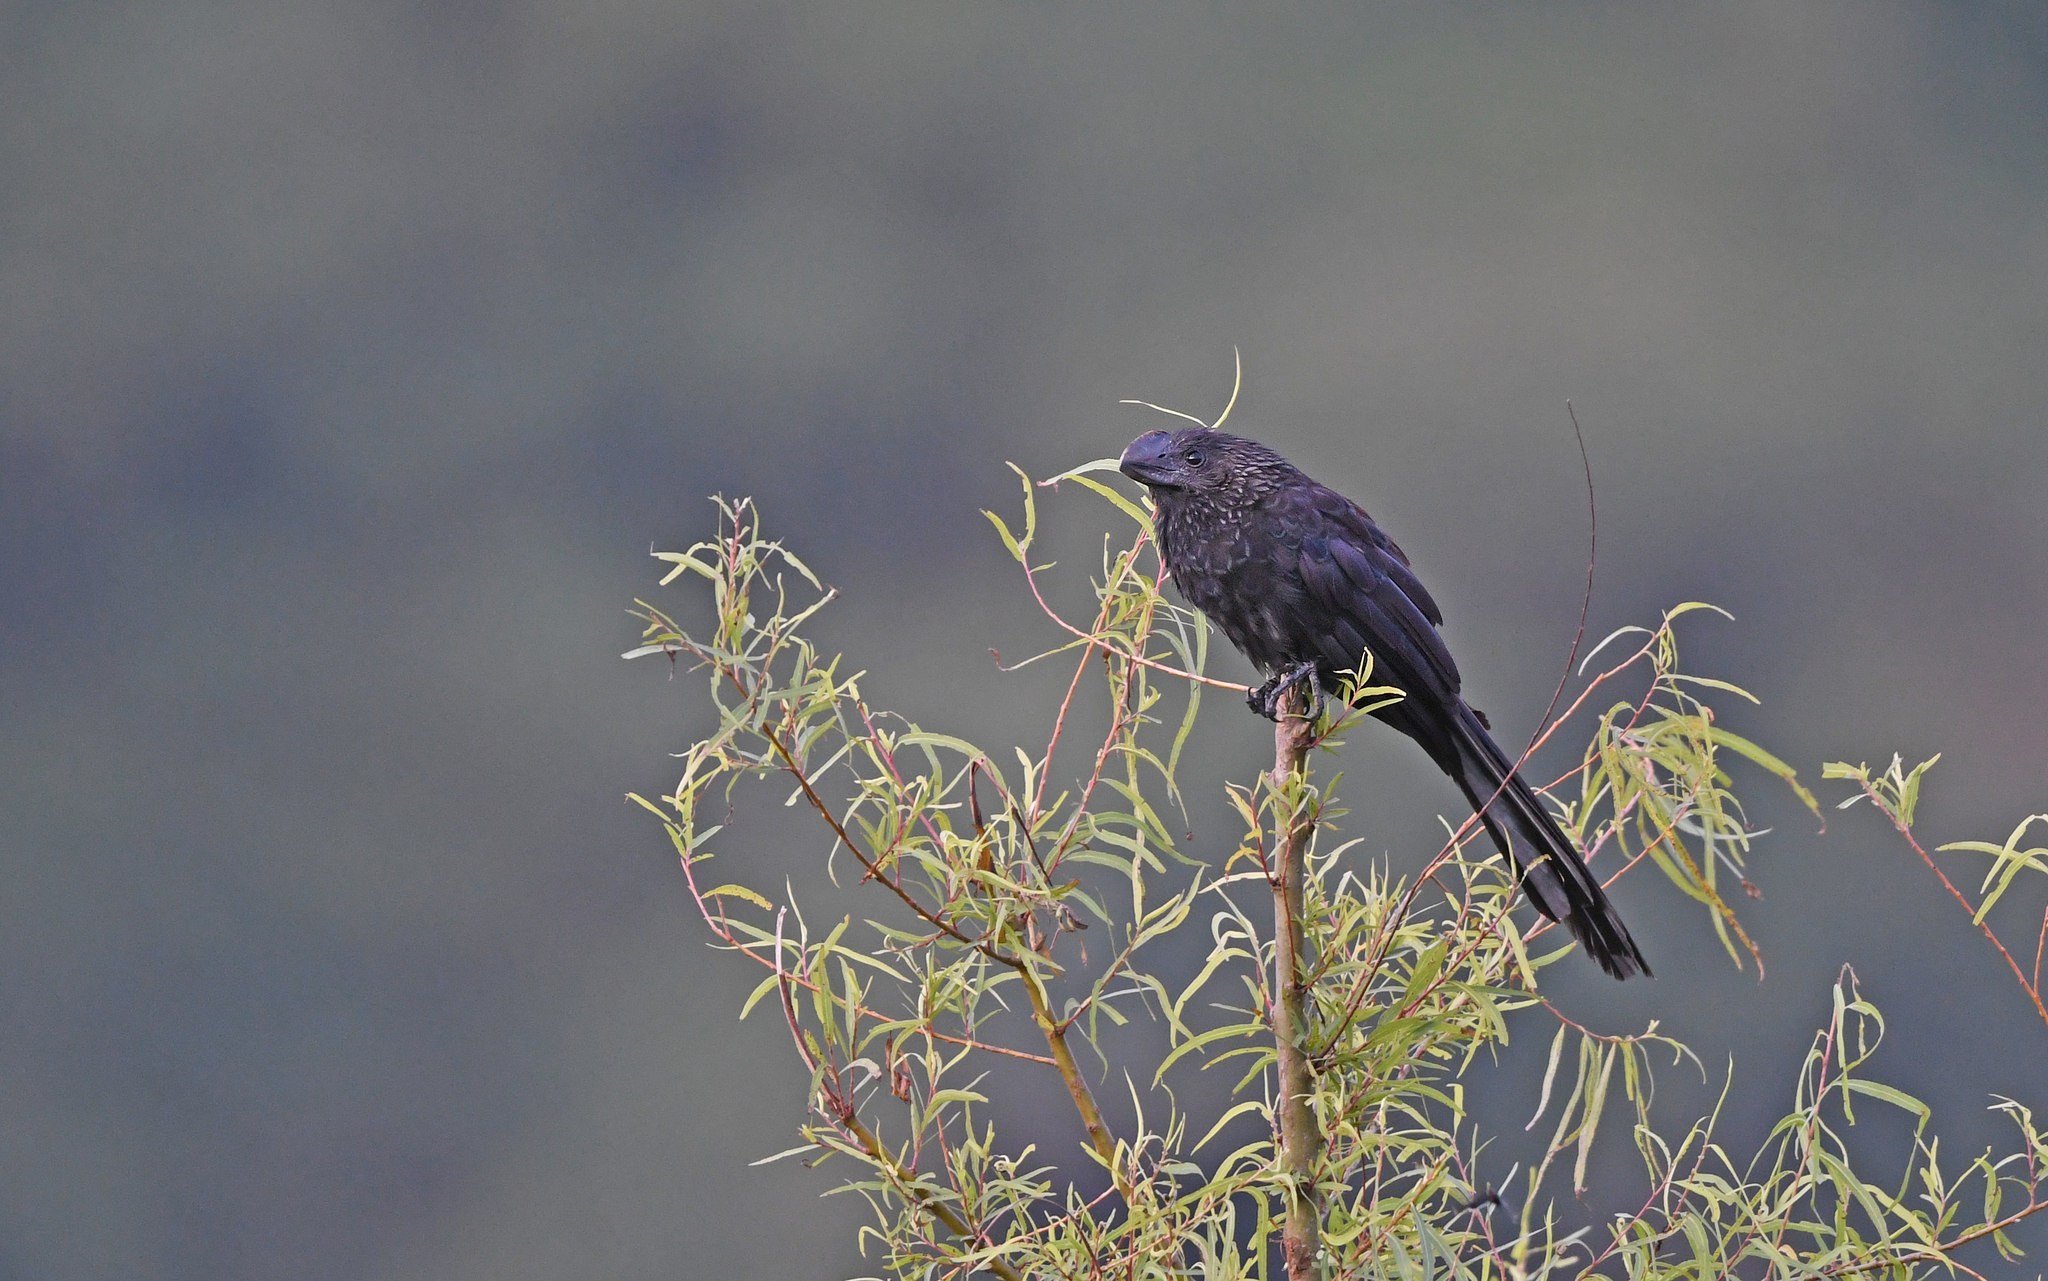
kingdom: Animalia
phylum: Chordata
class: Aves
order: Cuculiformes
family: Cuculidae
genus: Crotophaga
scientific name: Crotophaga ani
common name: Smooth-billed ani
